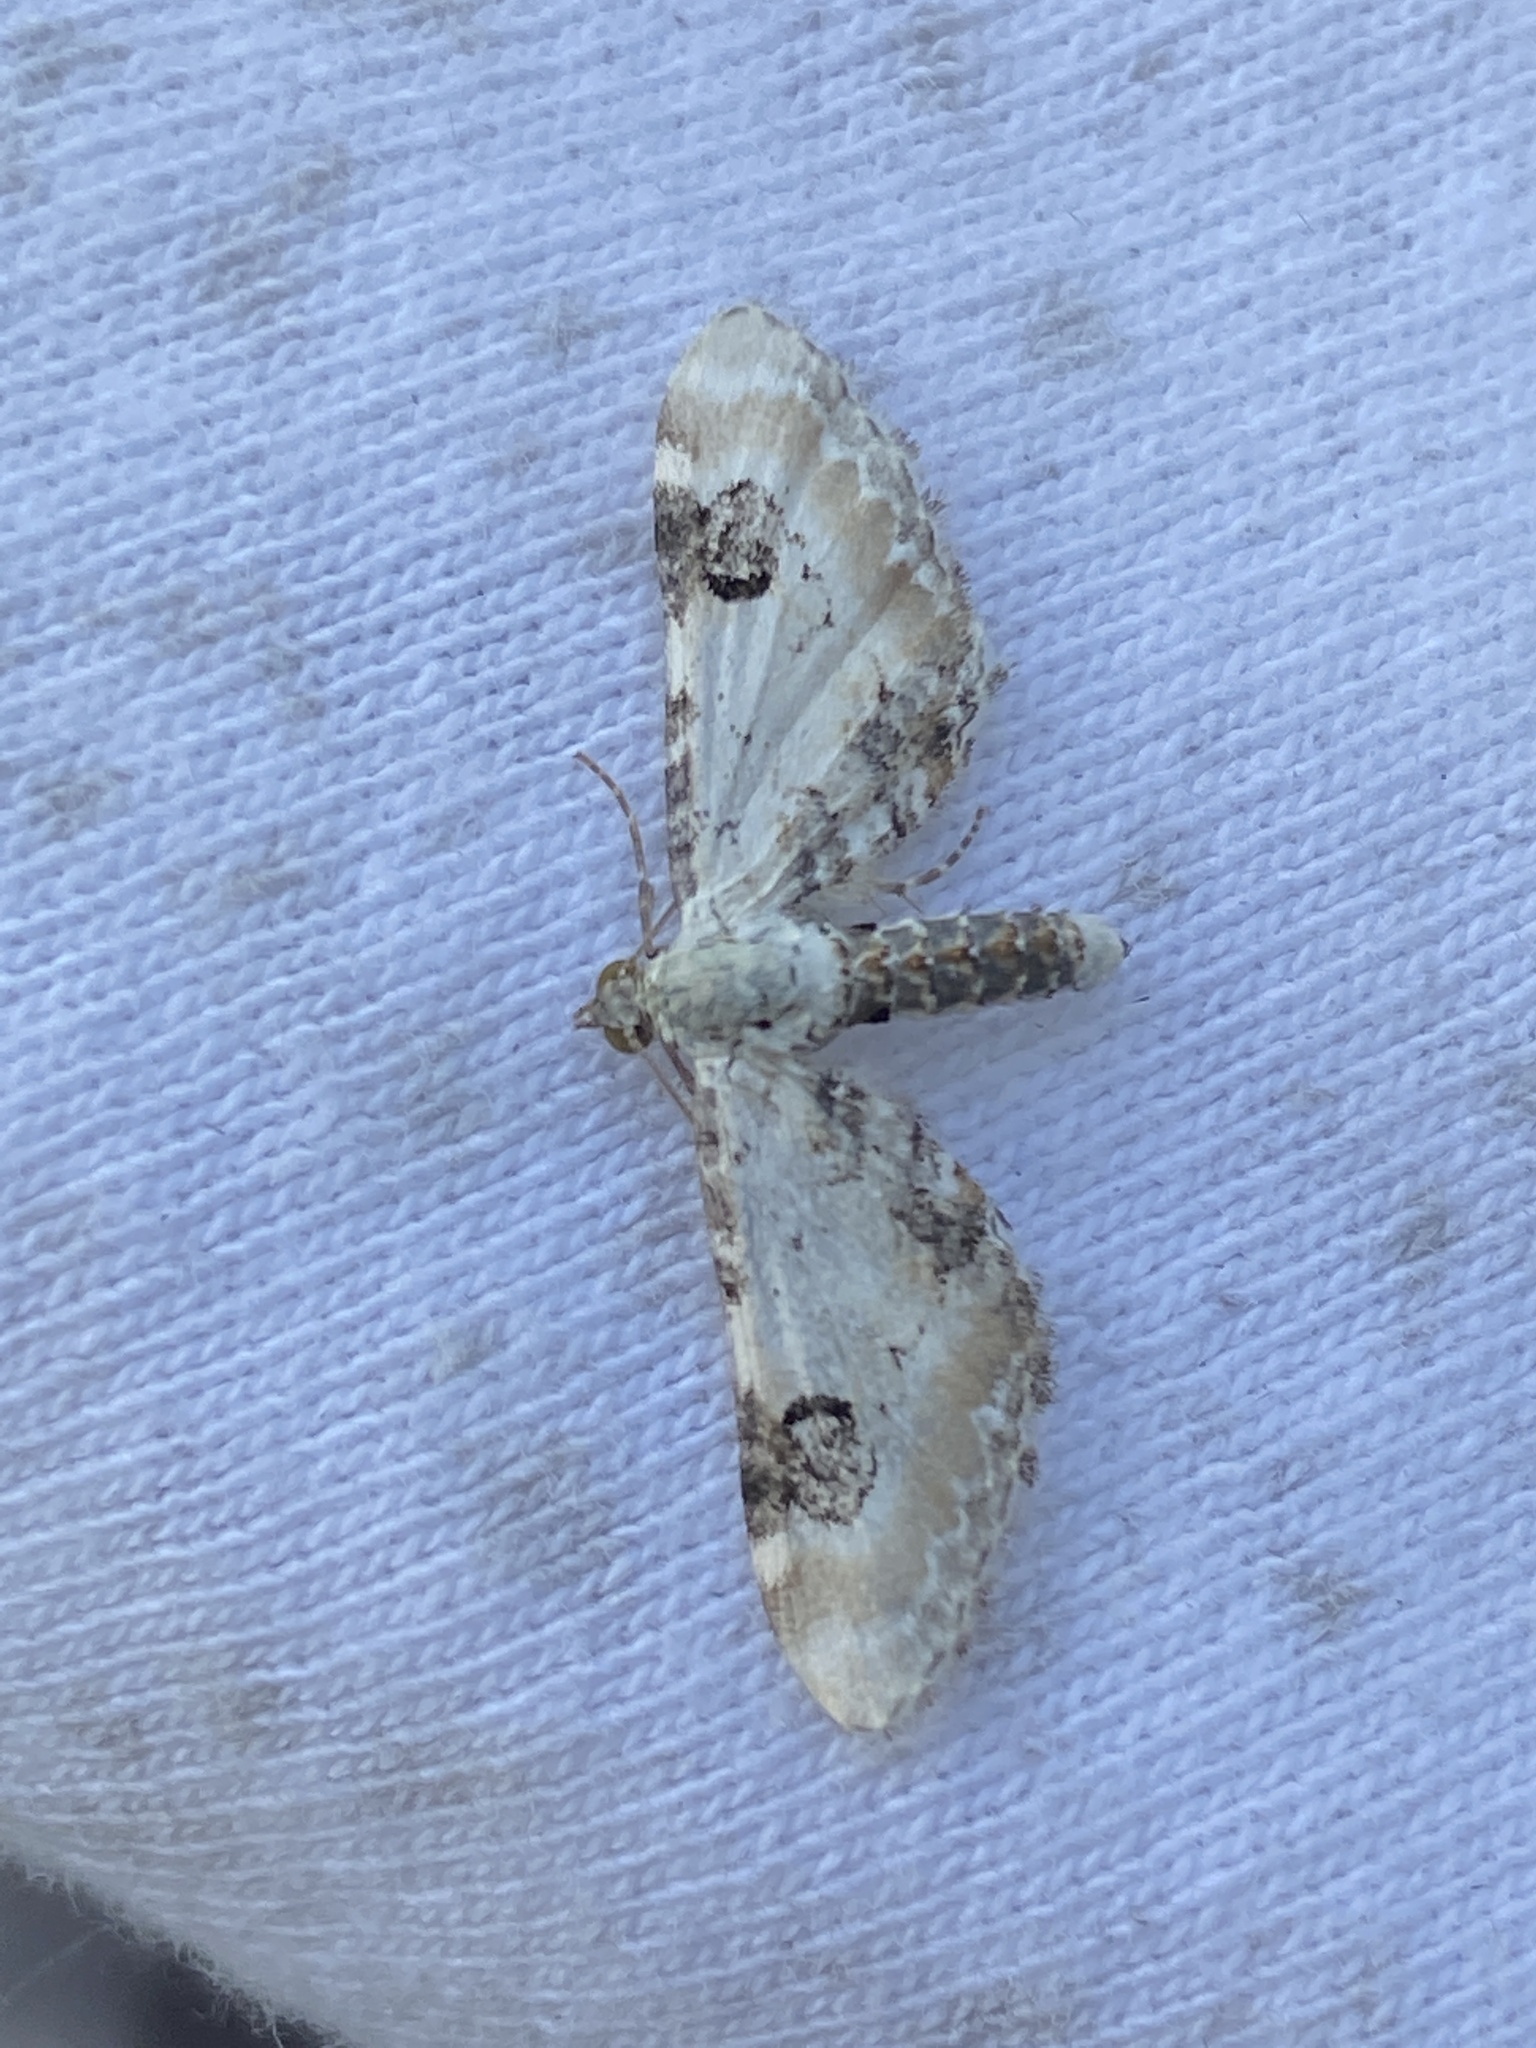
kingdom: Animalia
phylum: Arthropoda
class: Insecta
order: Lepidoptera
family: Geometridae
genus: Eupithecia
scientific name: Eupithecia centaureata
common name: Lime-speck pug
